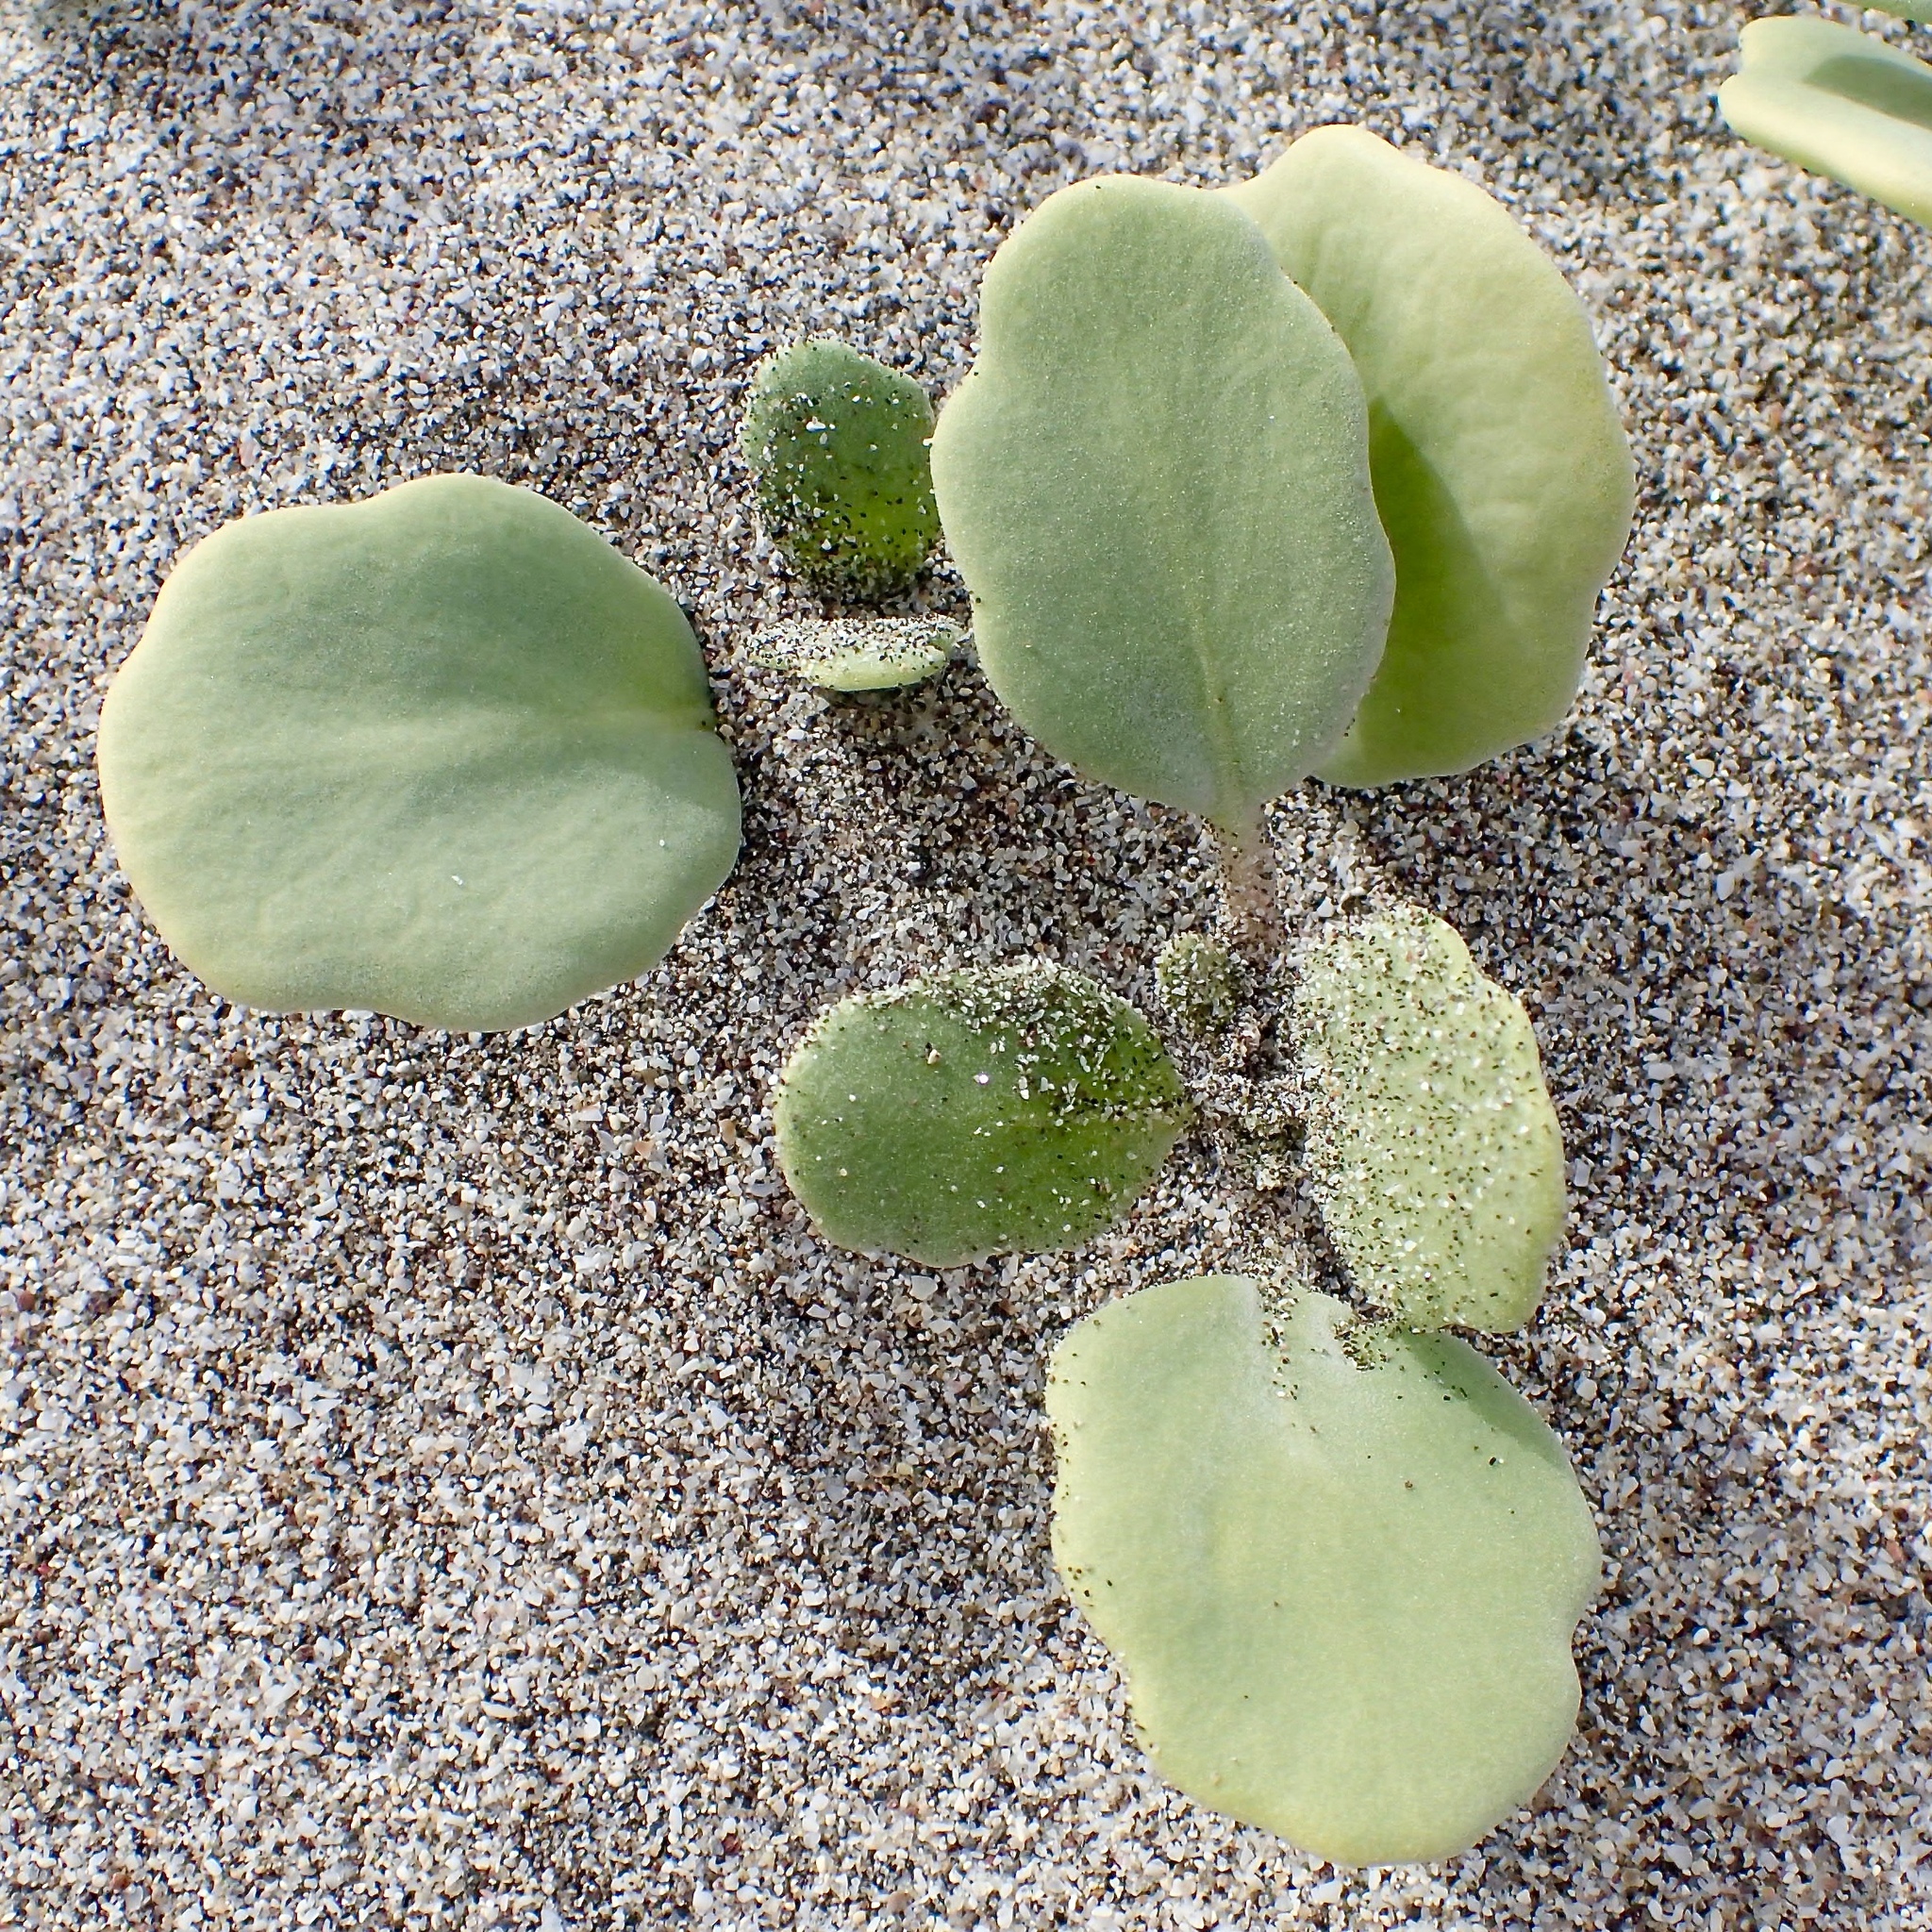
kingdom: Plantae
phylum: Tracheophyta
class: Magnoliopsida
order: Caryophyllales
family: Nyctaginaceae
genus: Abronia
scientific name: Abronia maritima
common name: Red sand-verbena
